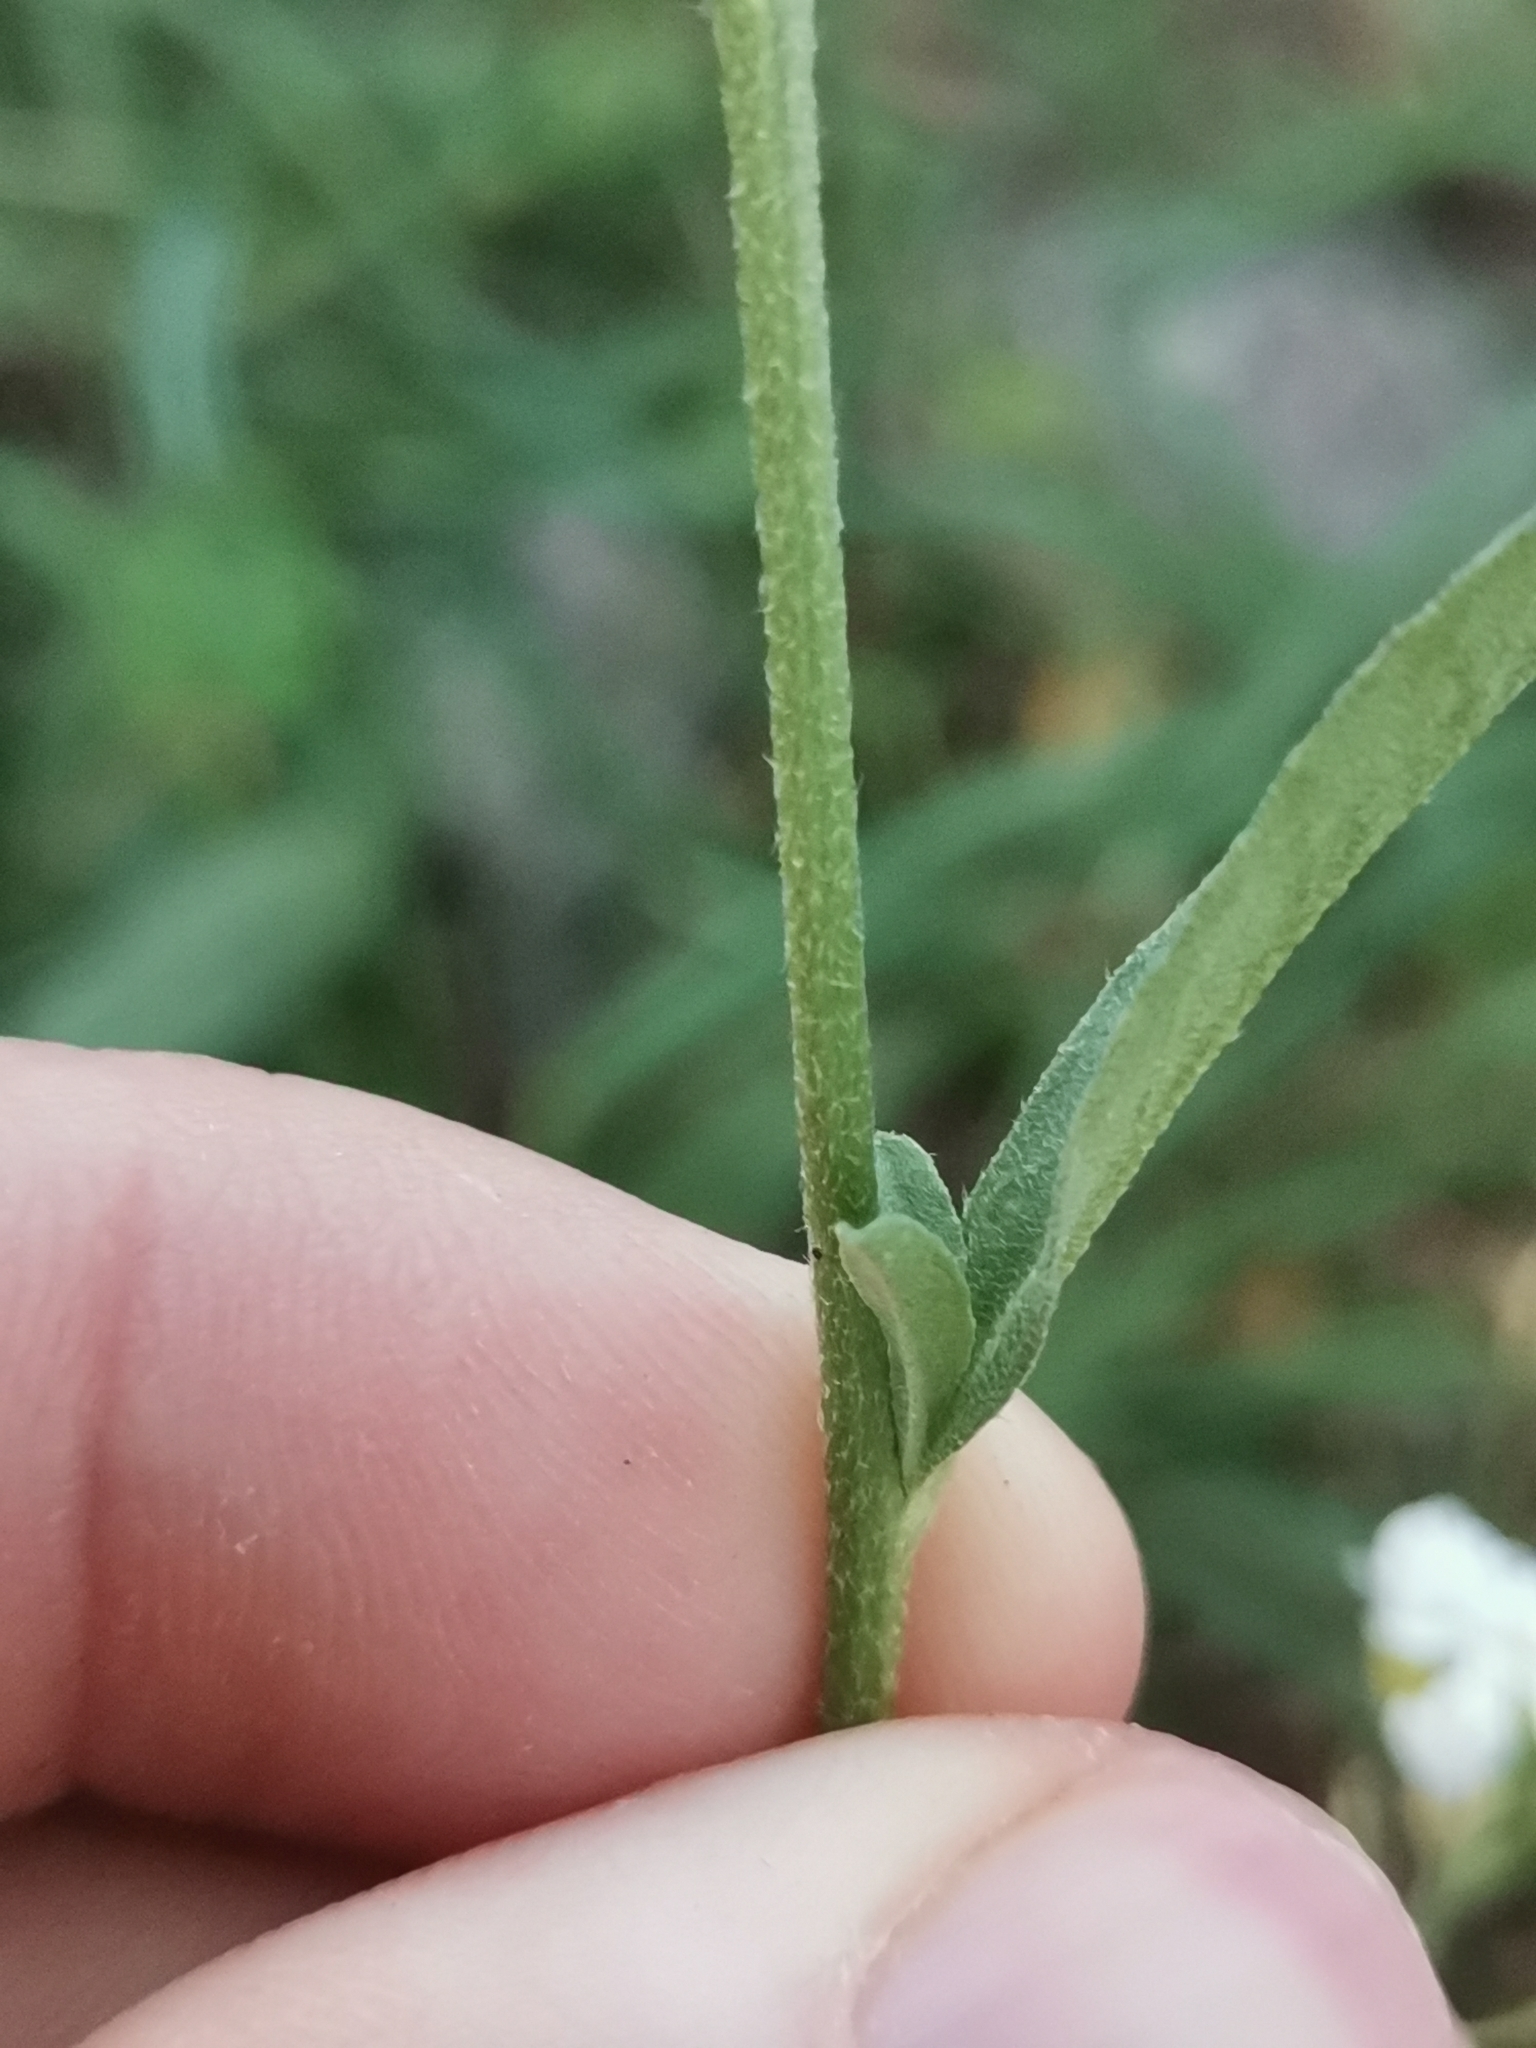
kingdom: Plantae
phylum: Tracheophyta
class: Magnoliopsida
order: Brassicales
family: Brassicaceae
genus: Berteroa
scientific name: Berteroa mutabilis
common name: Roadside false madwort
